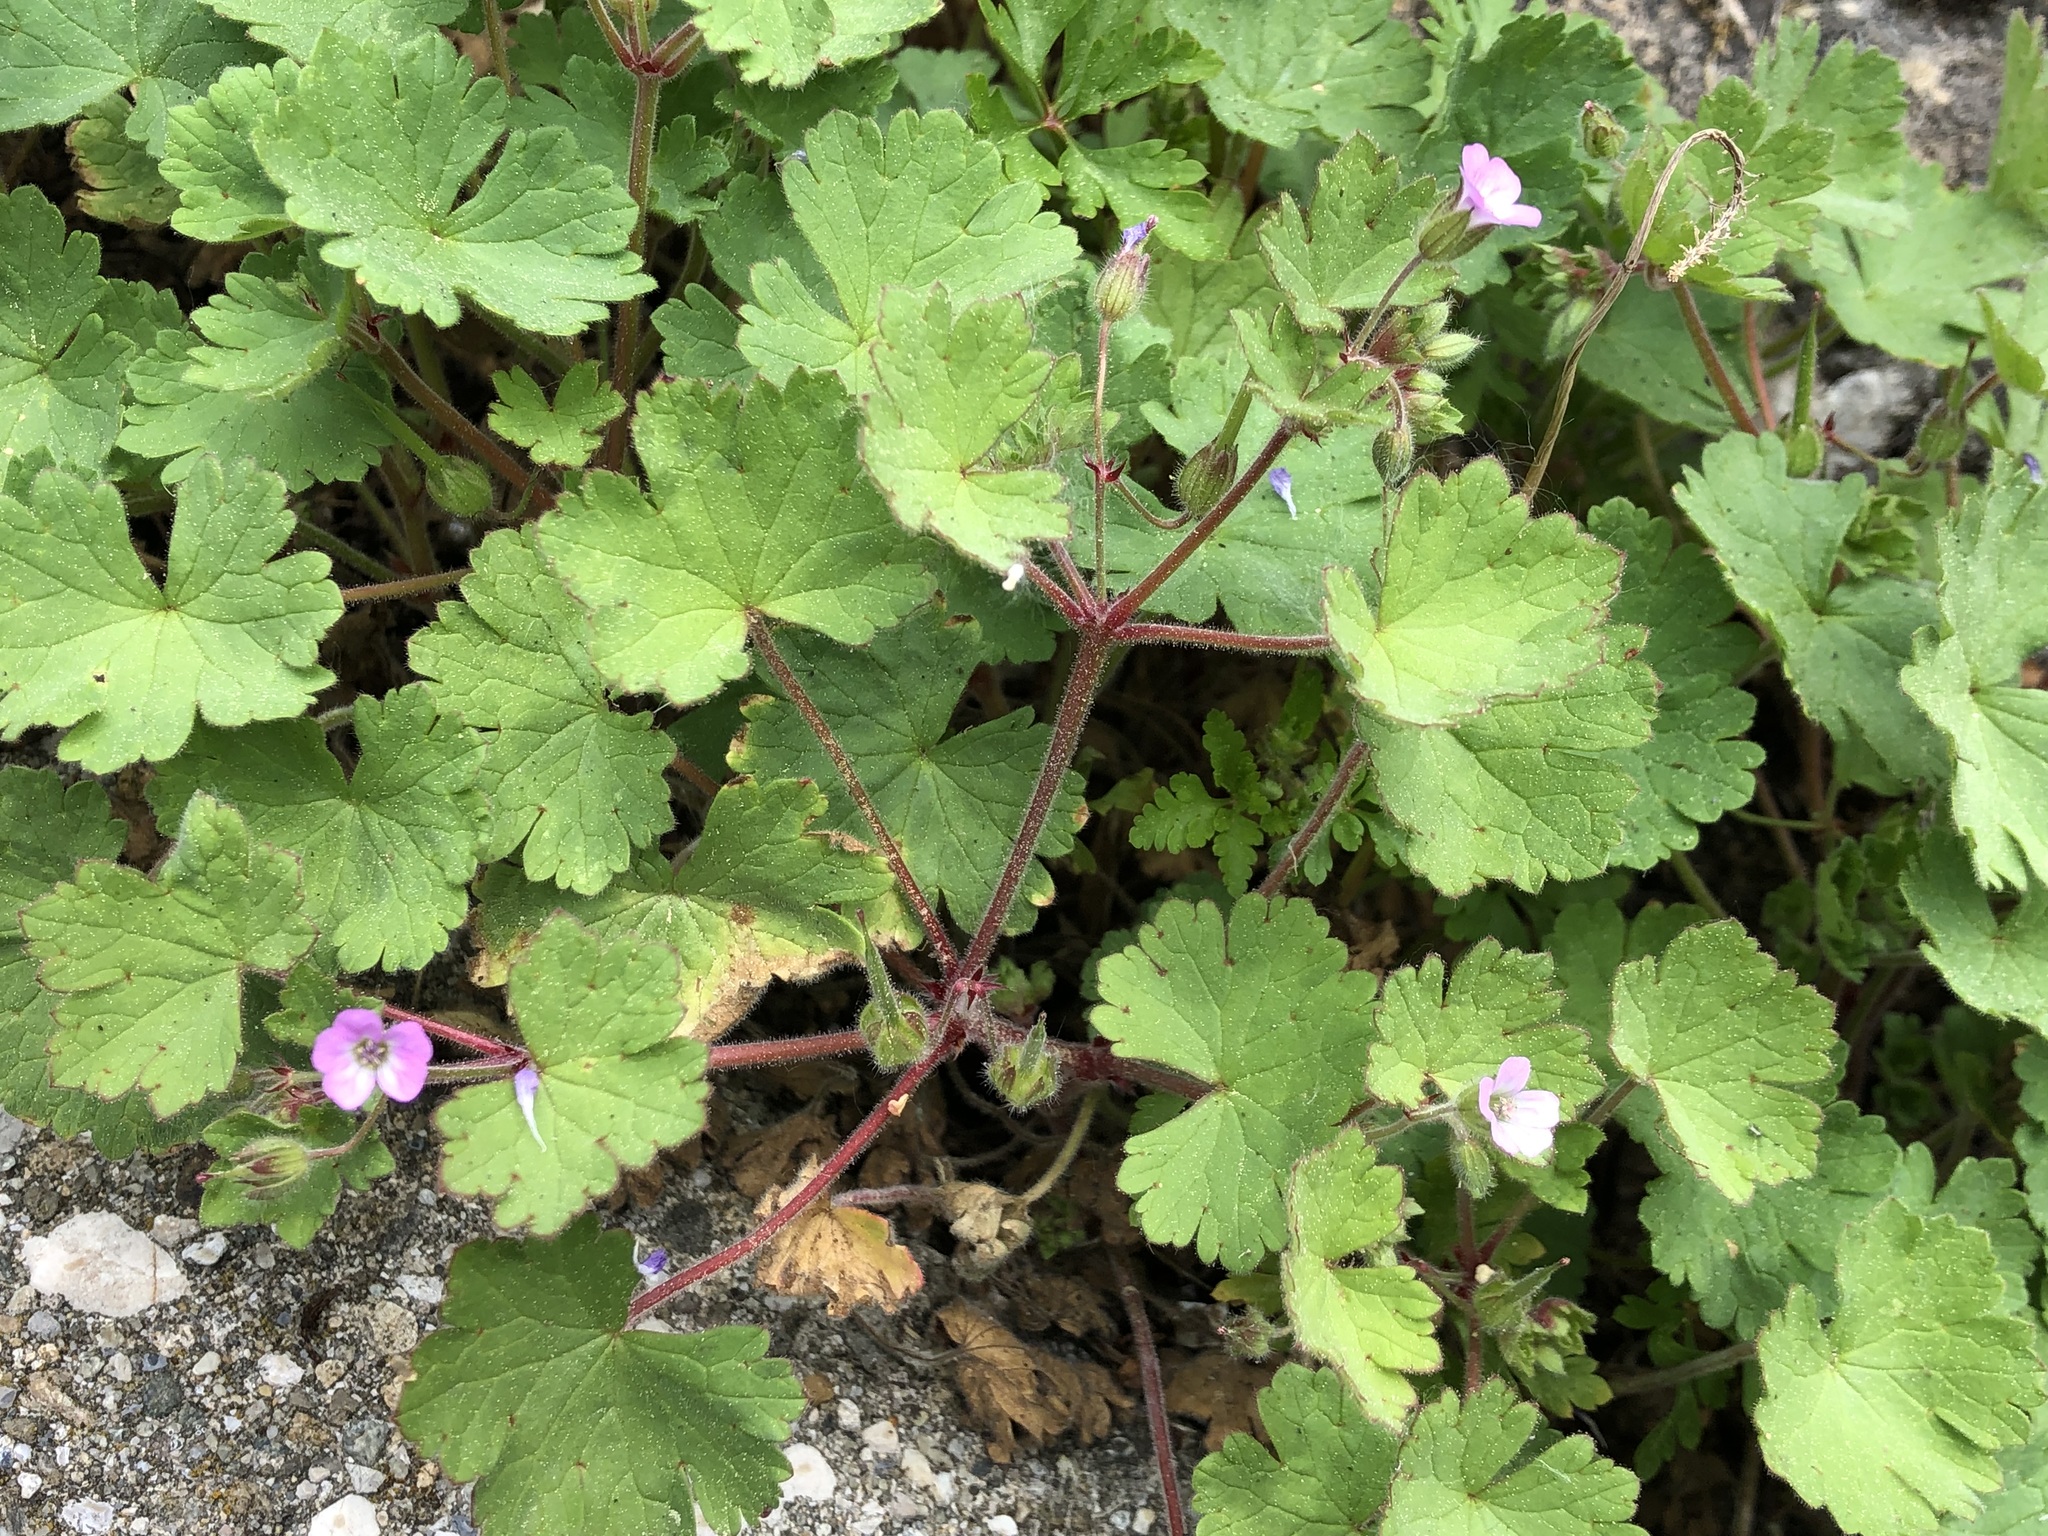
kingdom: Plantae
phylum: Tracheophyta
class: Magnoliopsida
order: Geraniales
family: Geraniaceae
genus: Geranium
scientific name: Geranium rotundifolium
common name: Round-leaved crane's-bill
